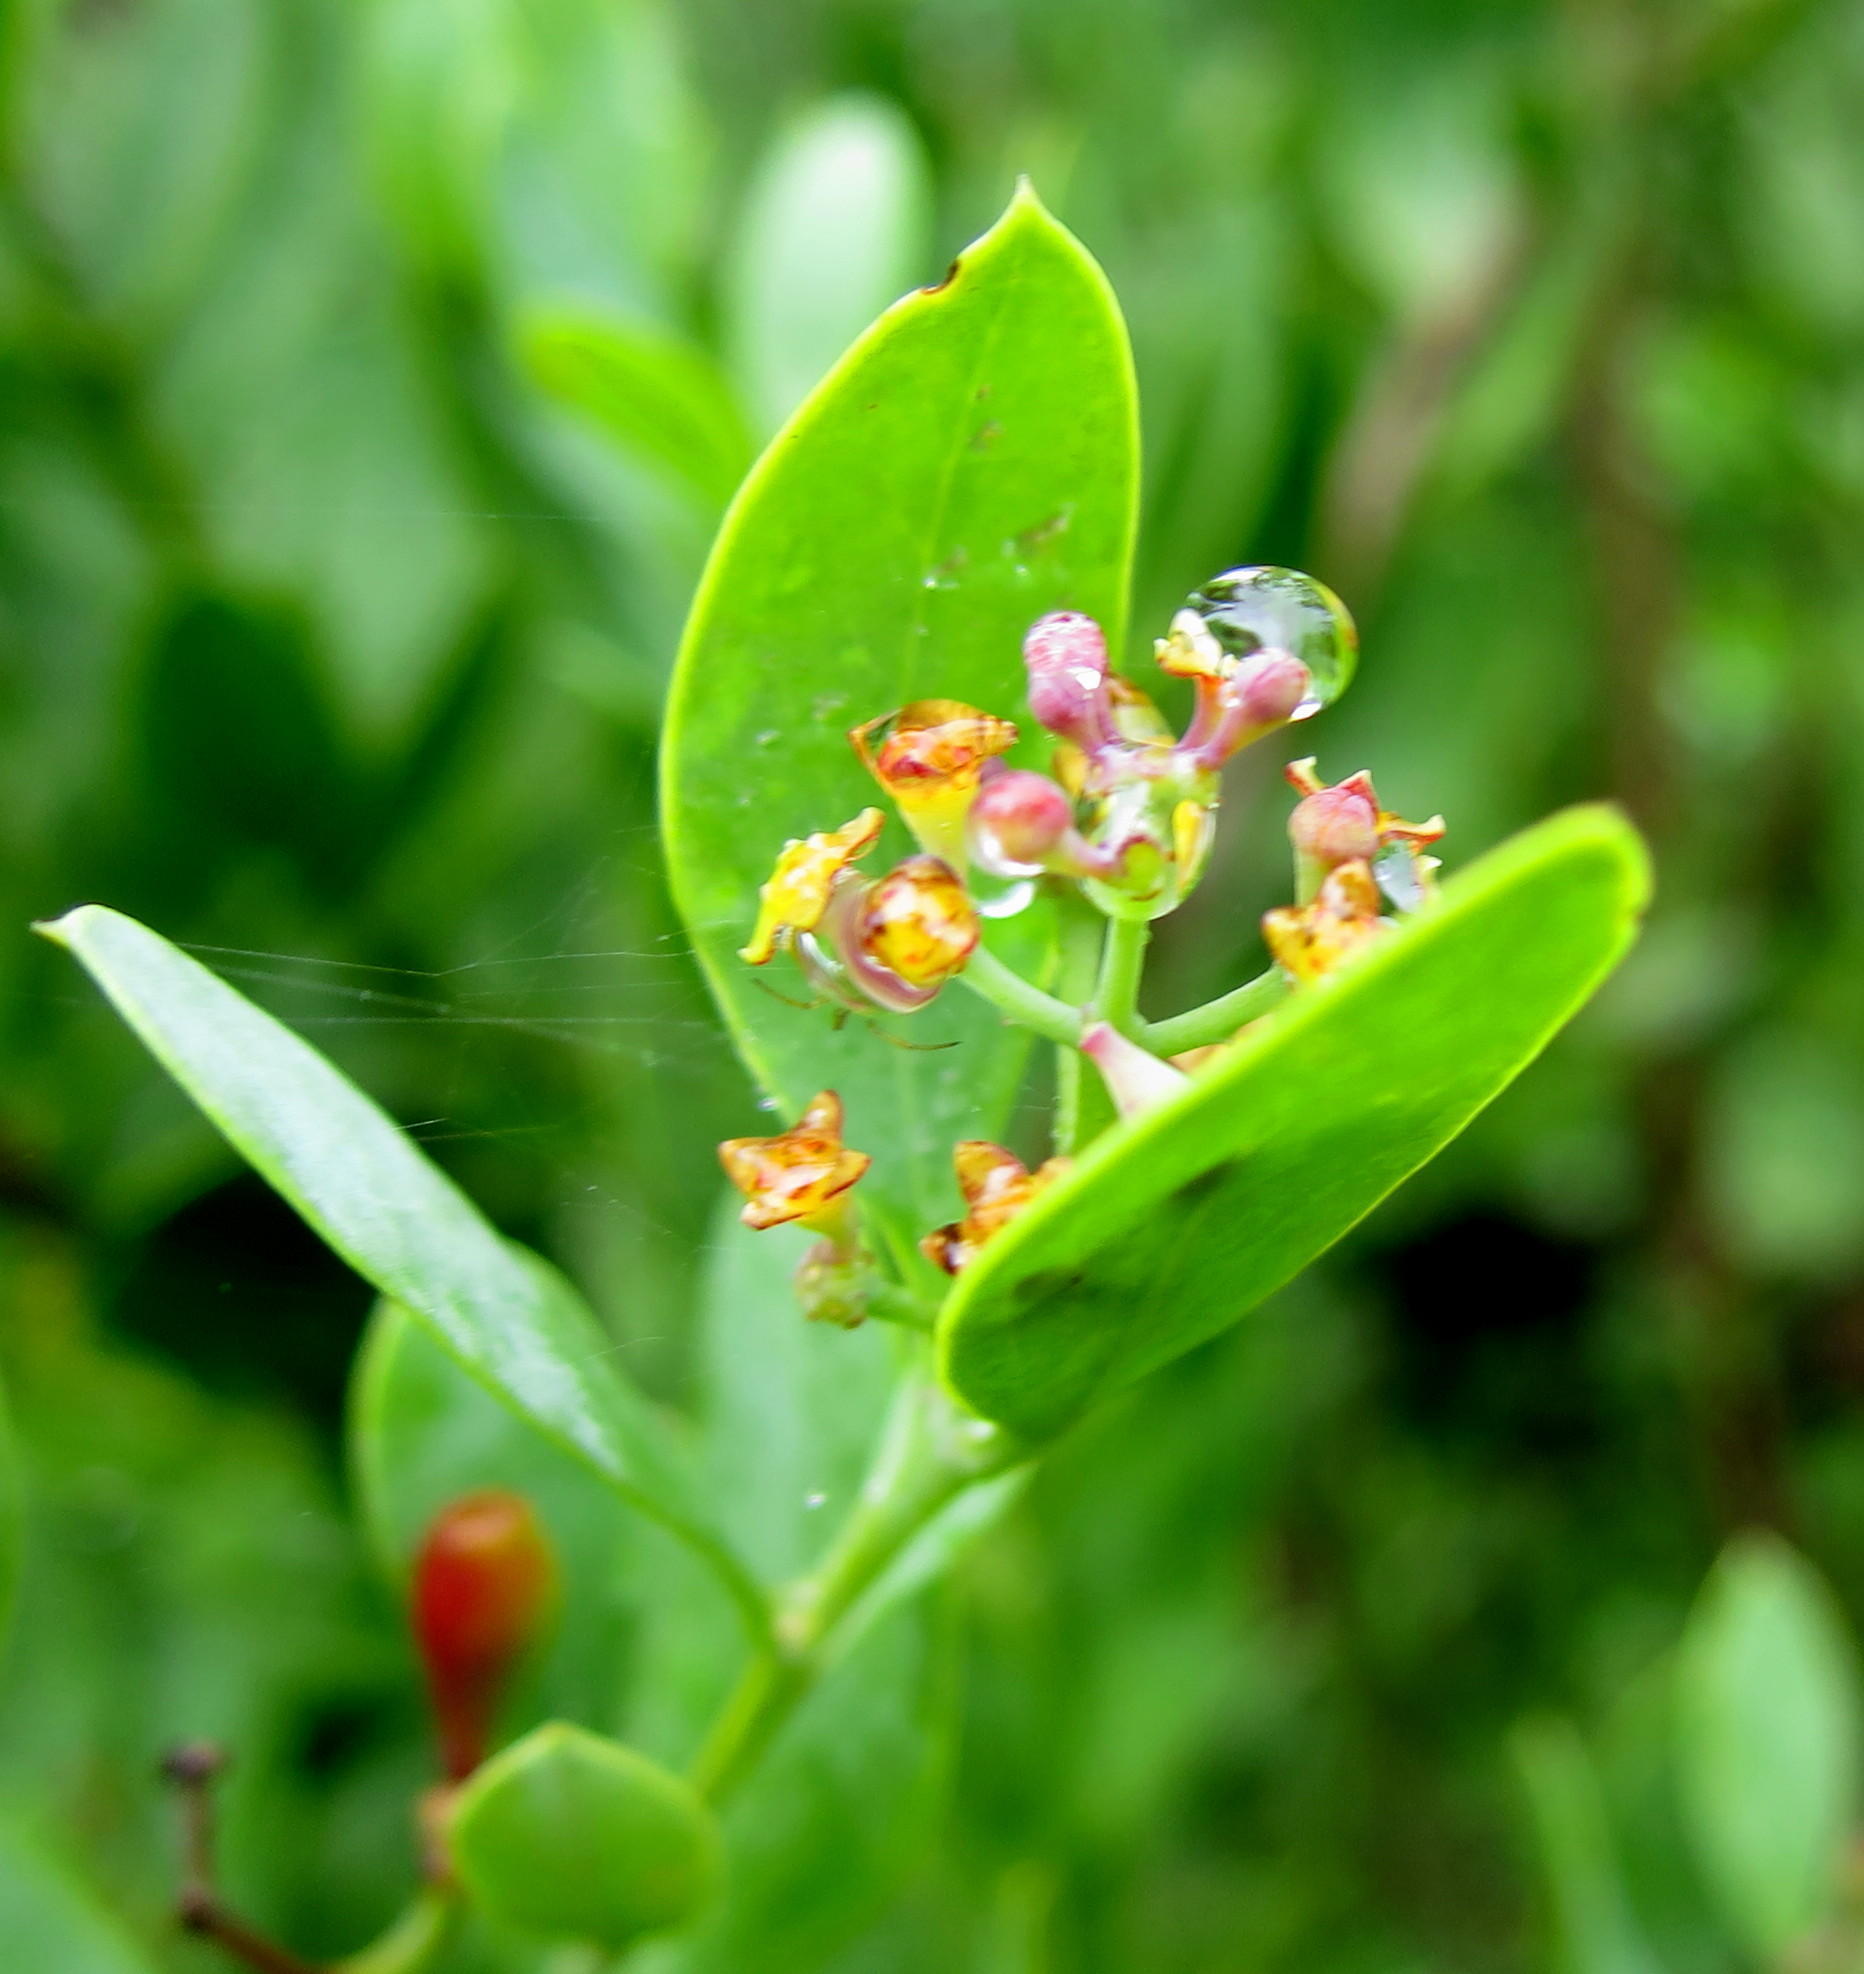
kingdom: Plantae
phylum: Tracheophyta
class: Magnoliopsida
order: Santalales
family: Santalaceae
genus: Osyris
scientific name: Osyris compressa
